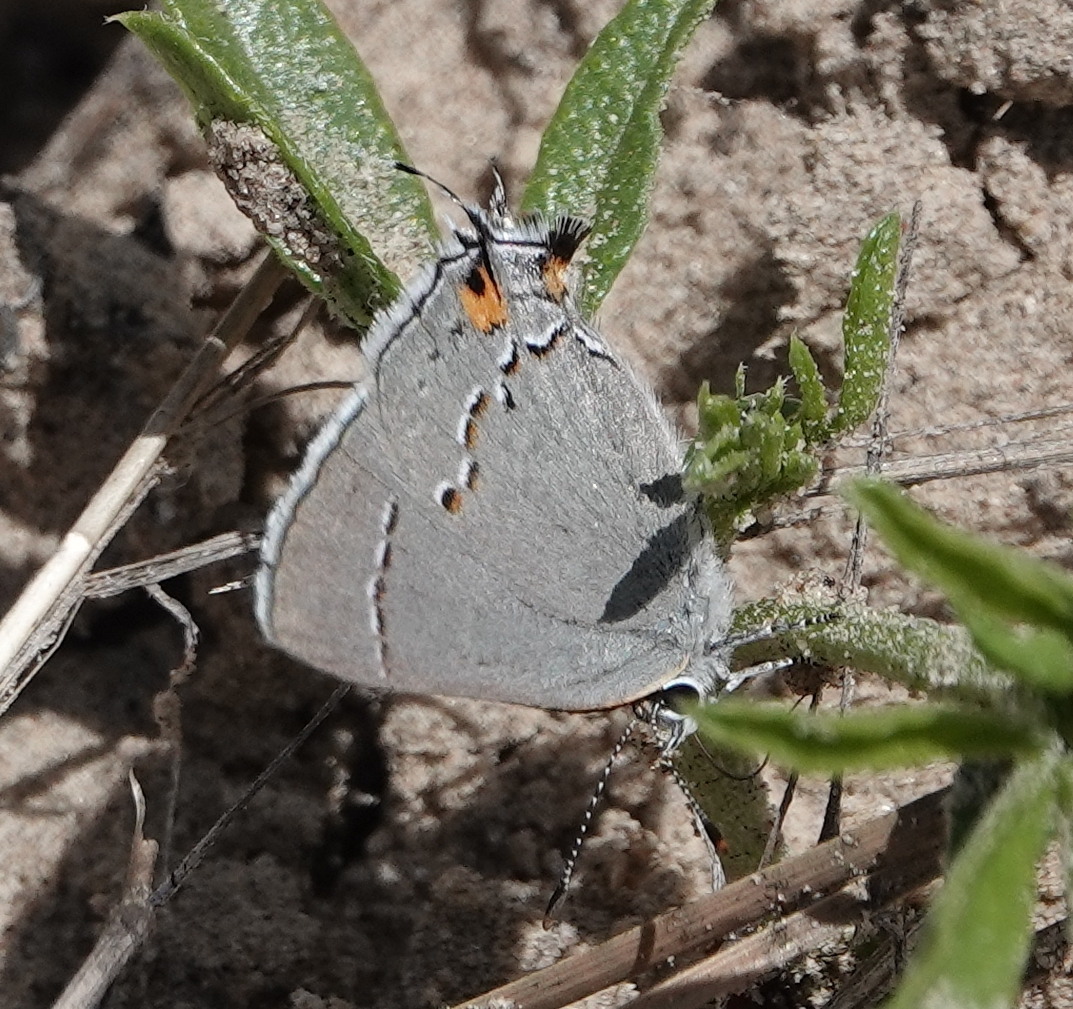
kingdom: Animalia
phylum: Arthropoda
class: Insecta
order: Lepidoptera
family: Lycaenidae
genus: Strymon
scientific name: Strymon melinus
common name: Gray hairstreak
